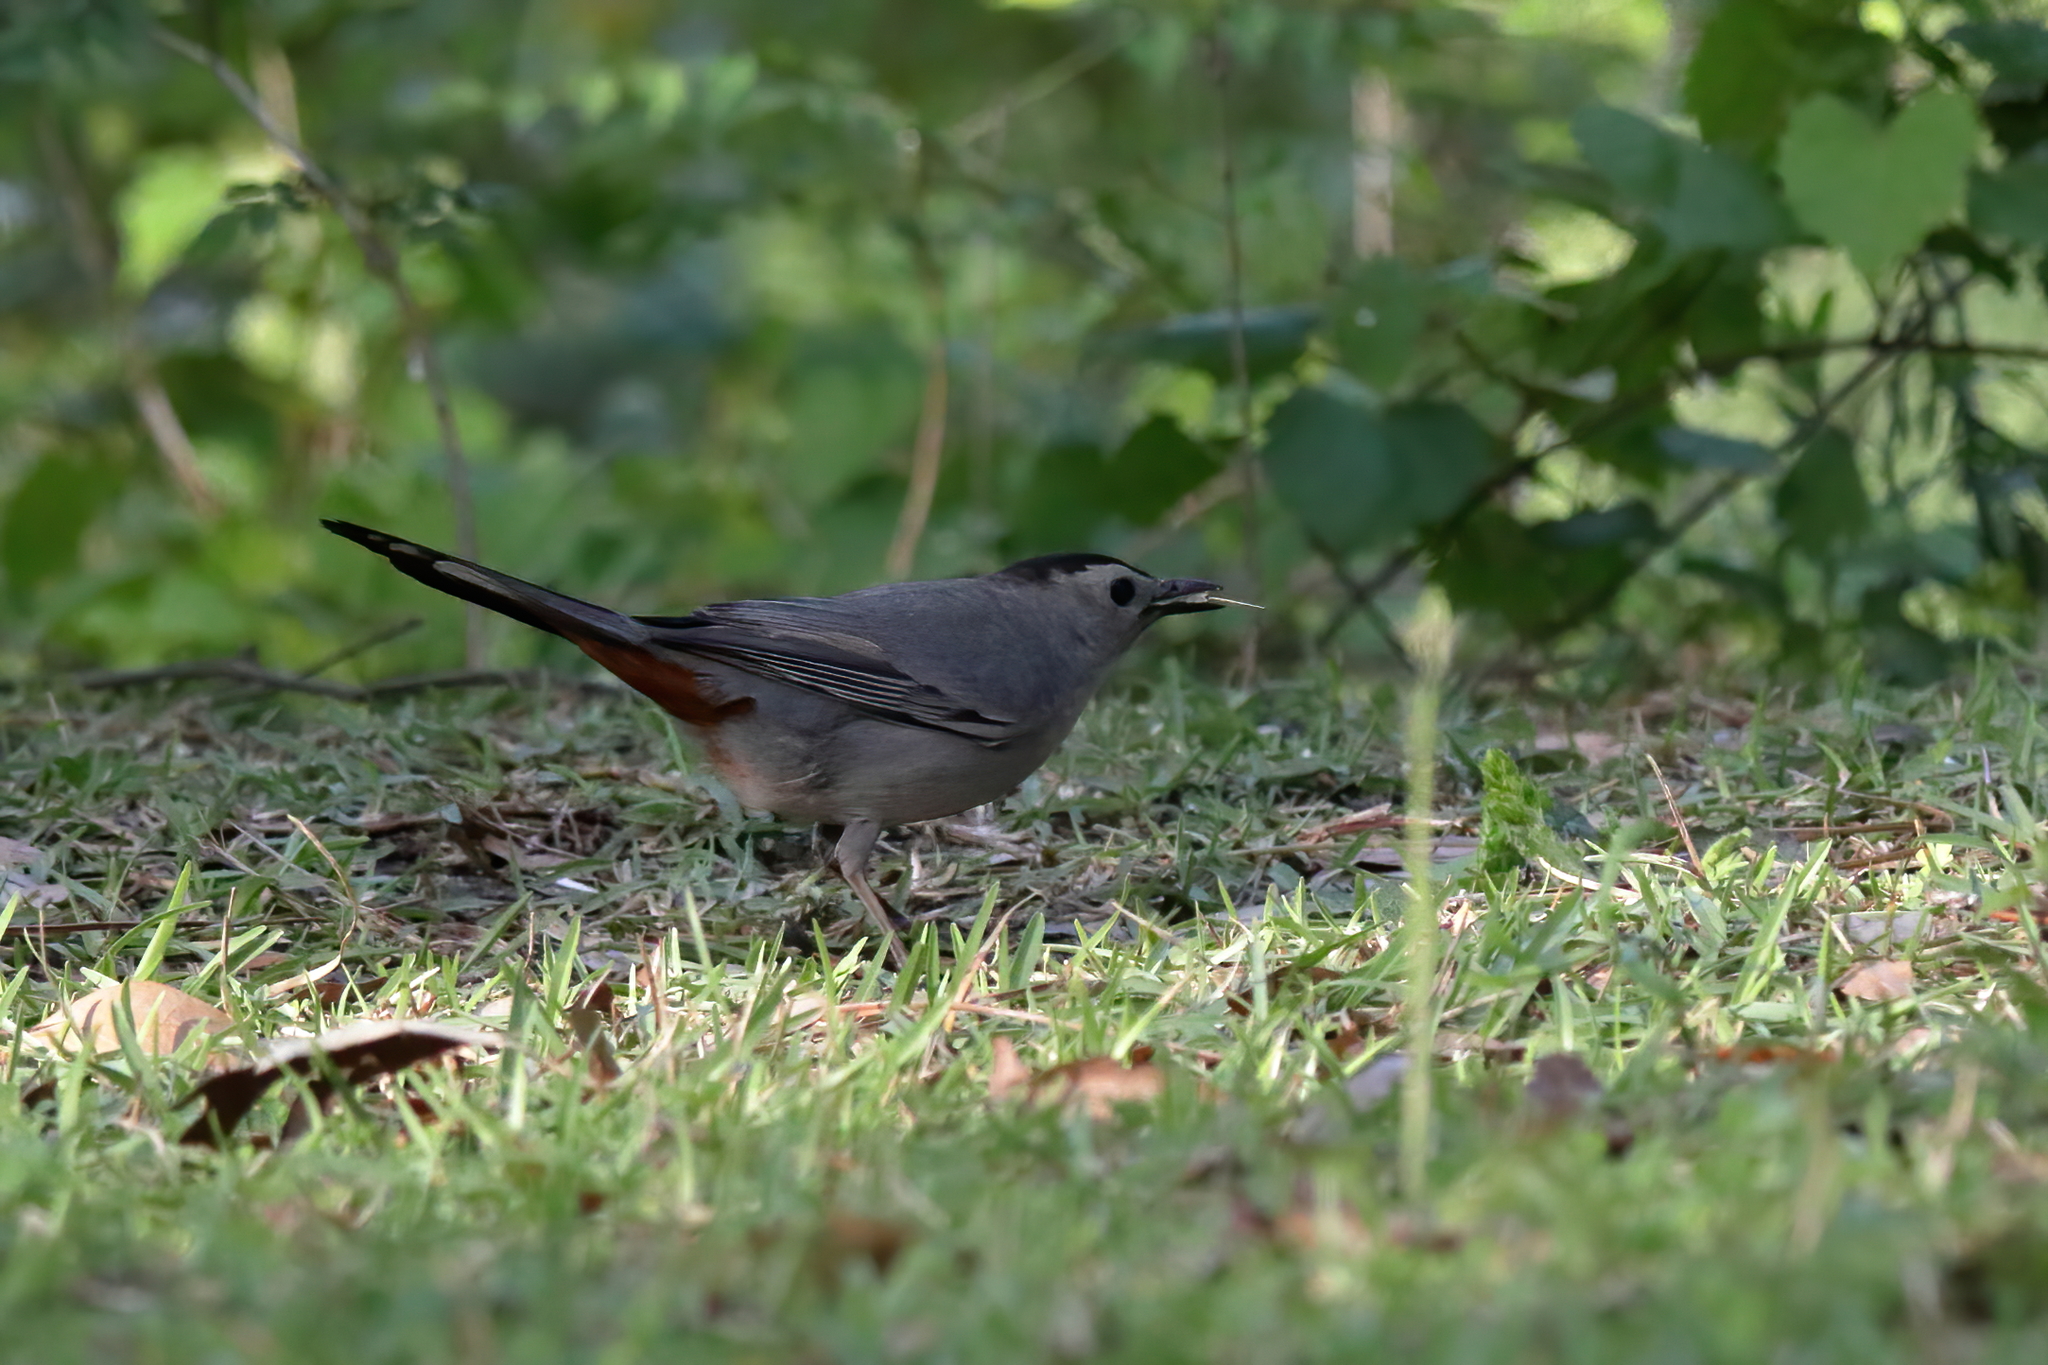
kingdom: Animalia
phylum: Chordata
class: Aves
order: Passeriformes
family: Mimidae
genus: Dumetella
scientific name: Dumetella carolinensis
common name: Gray catbird
